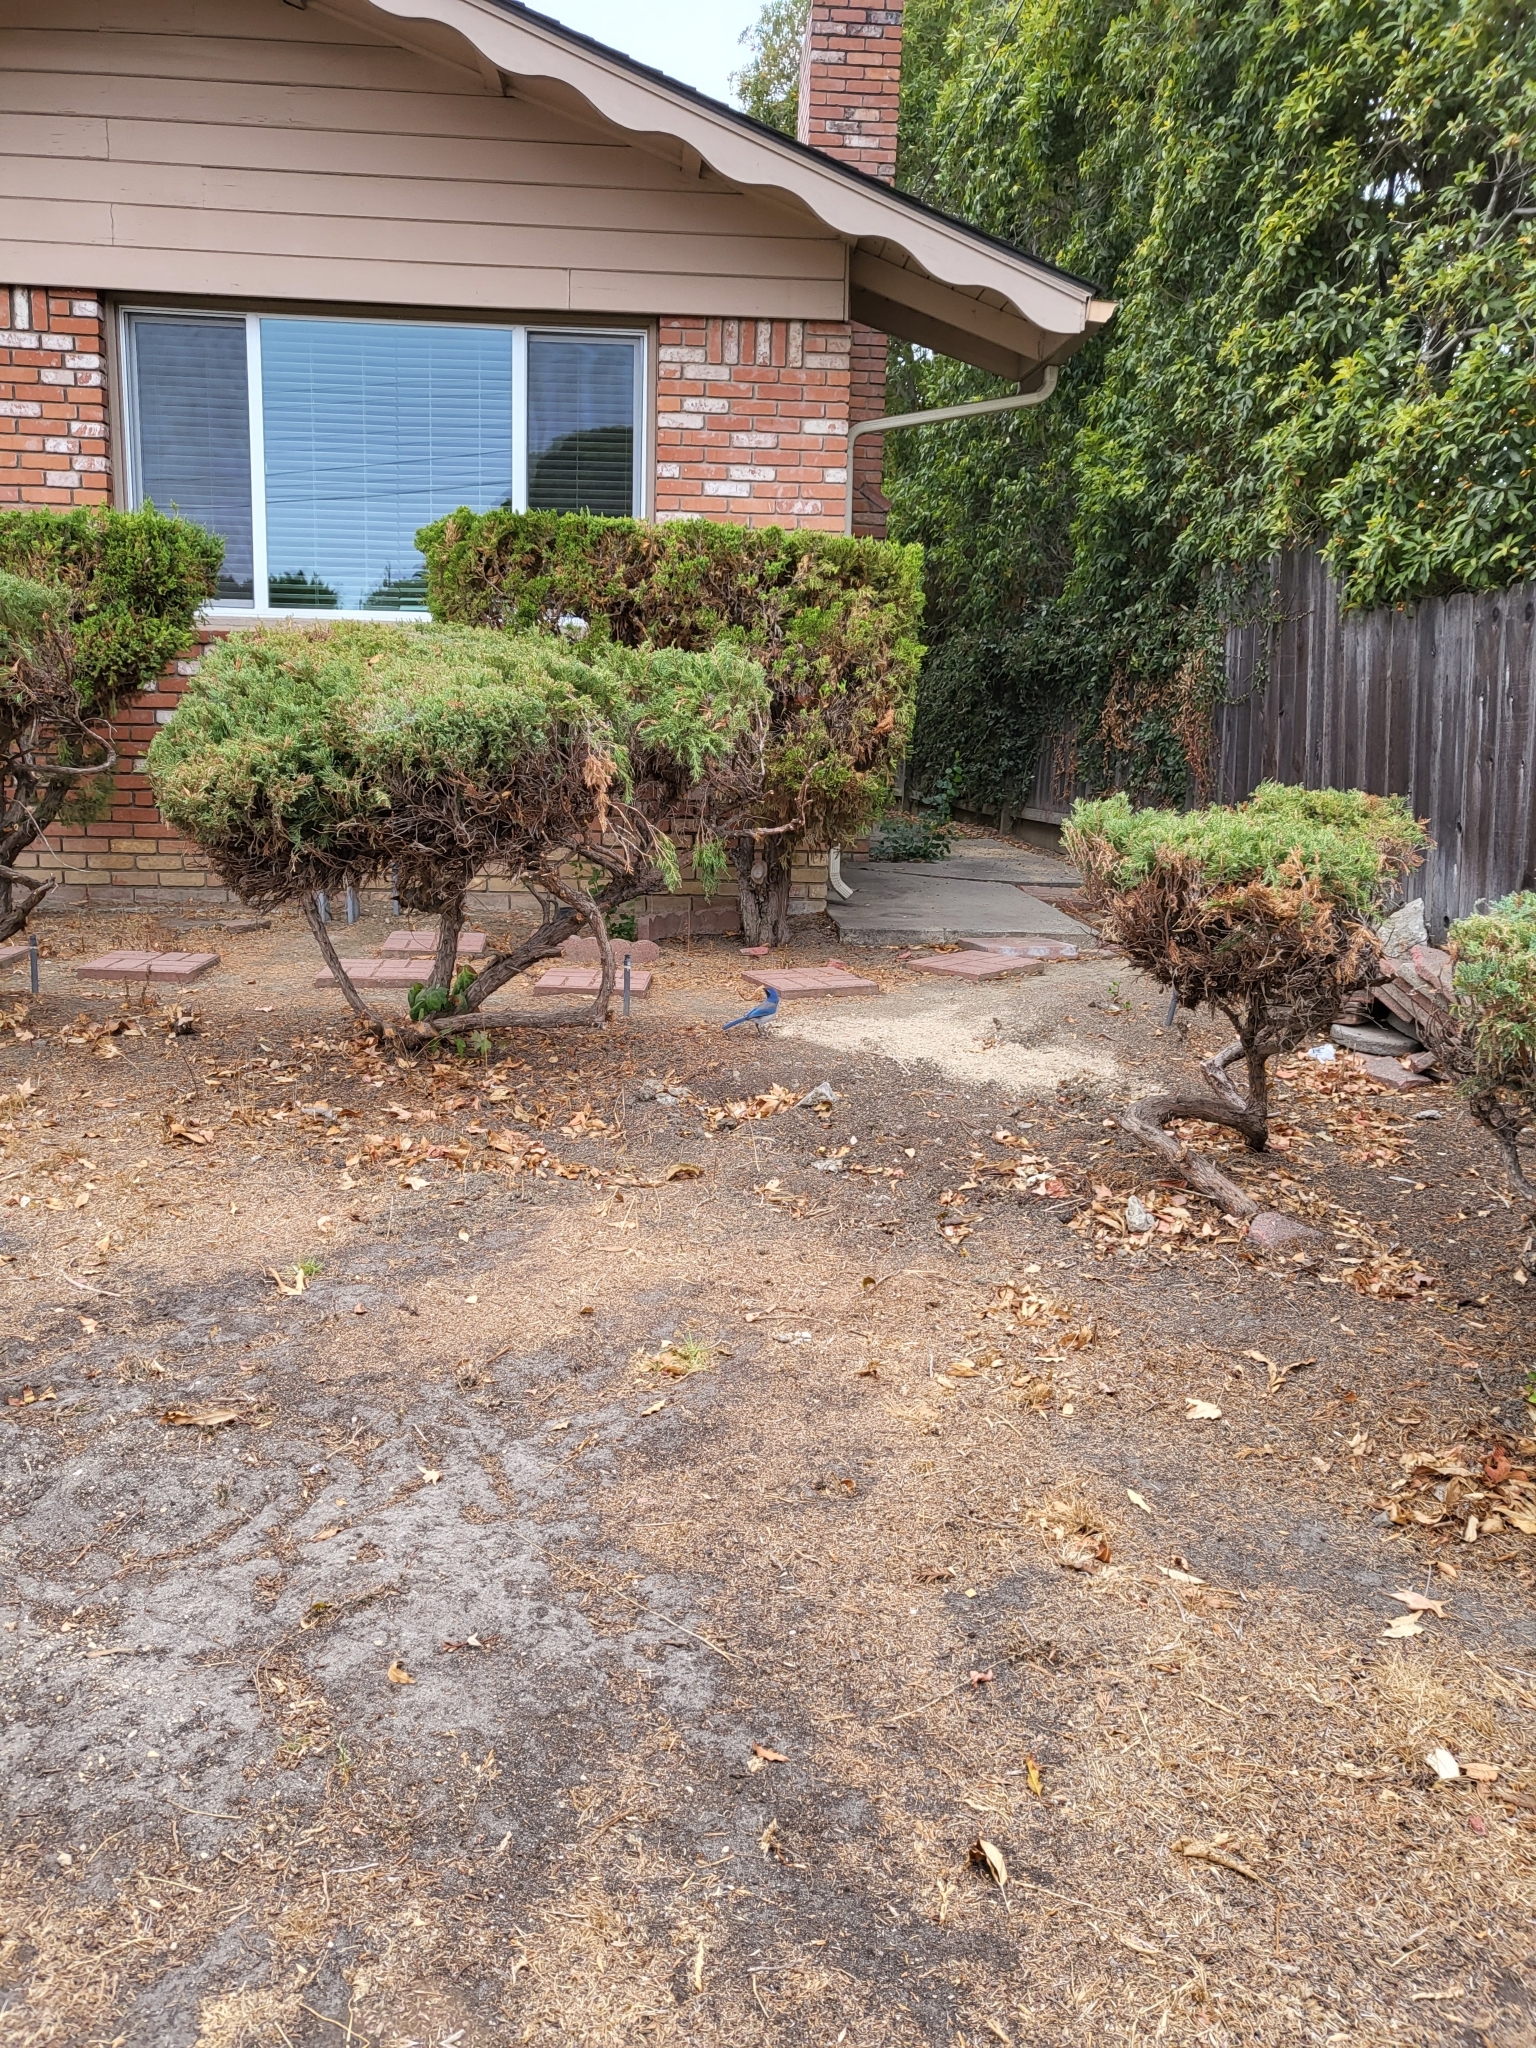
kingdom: Animalia
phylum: Chordata
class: Aves
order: Passeriformes
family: Corvidae
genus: Aphelocoma
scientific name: Aphelocoma californica
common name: California scrub-jay
